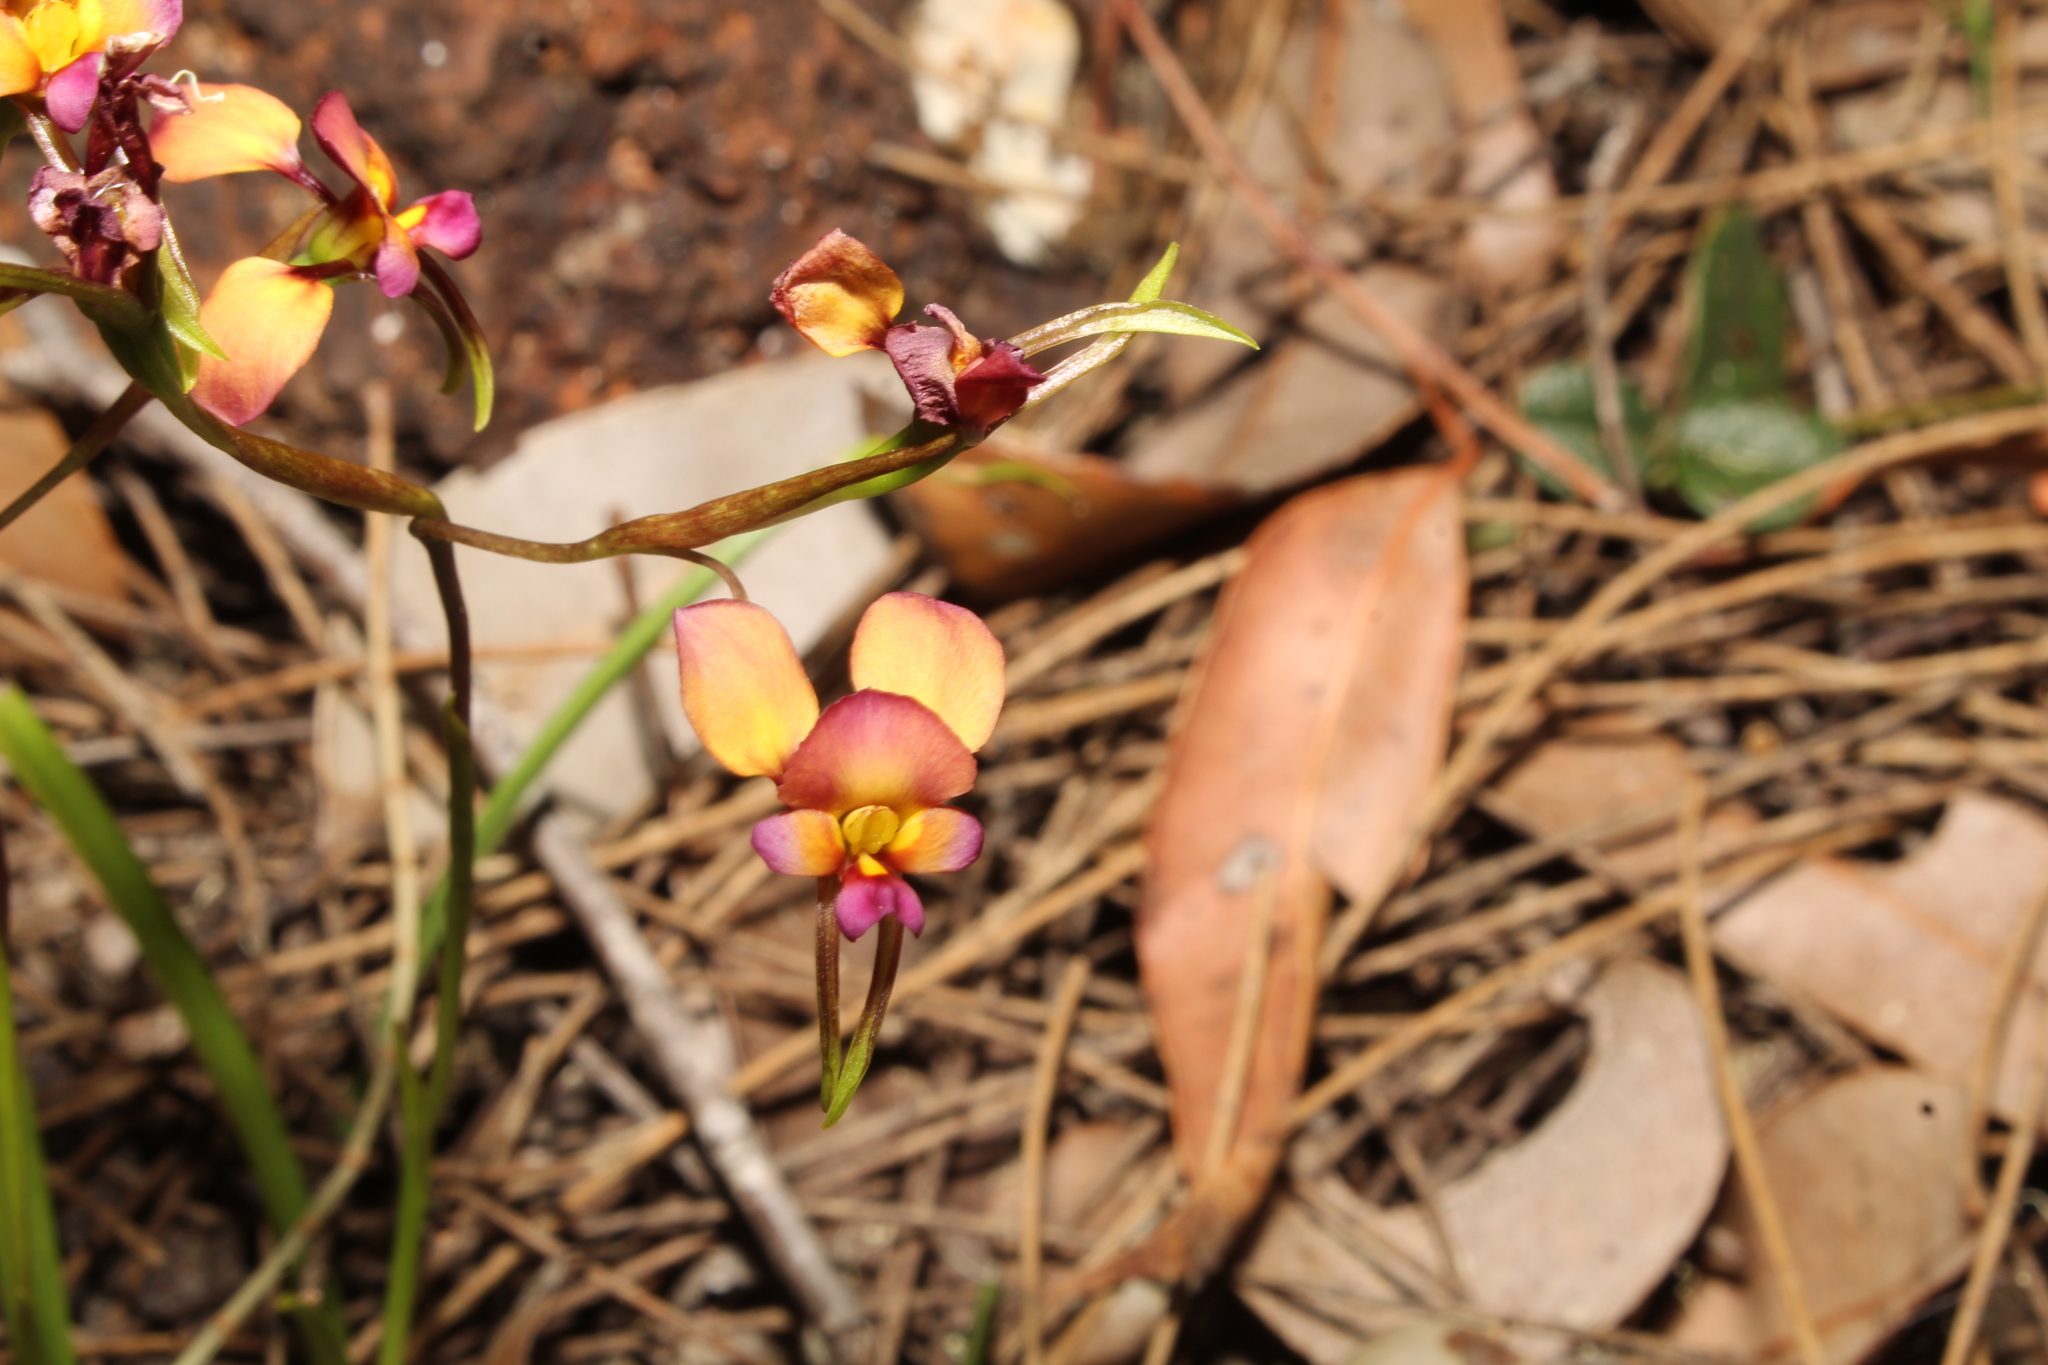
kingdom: Plantae
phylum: Tracheophyta
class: Liliopsida
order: Asparagales
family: Orchidaceae
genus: Diuris
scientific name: Diuris longifolia
